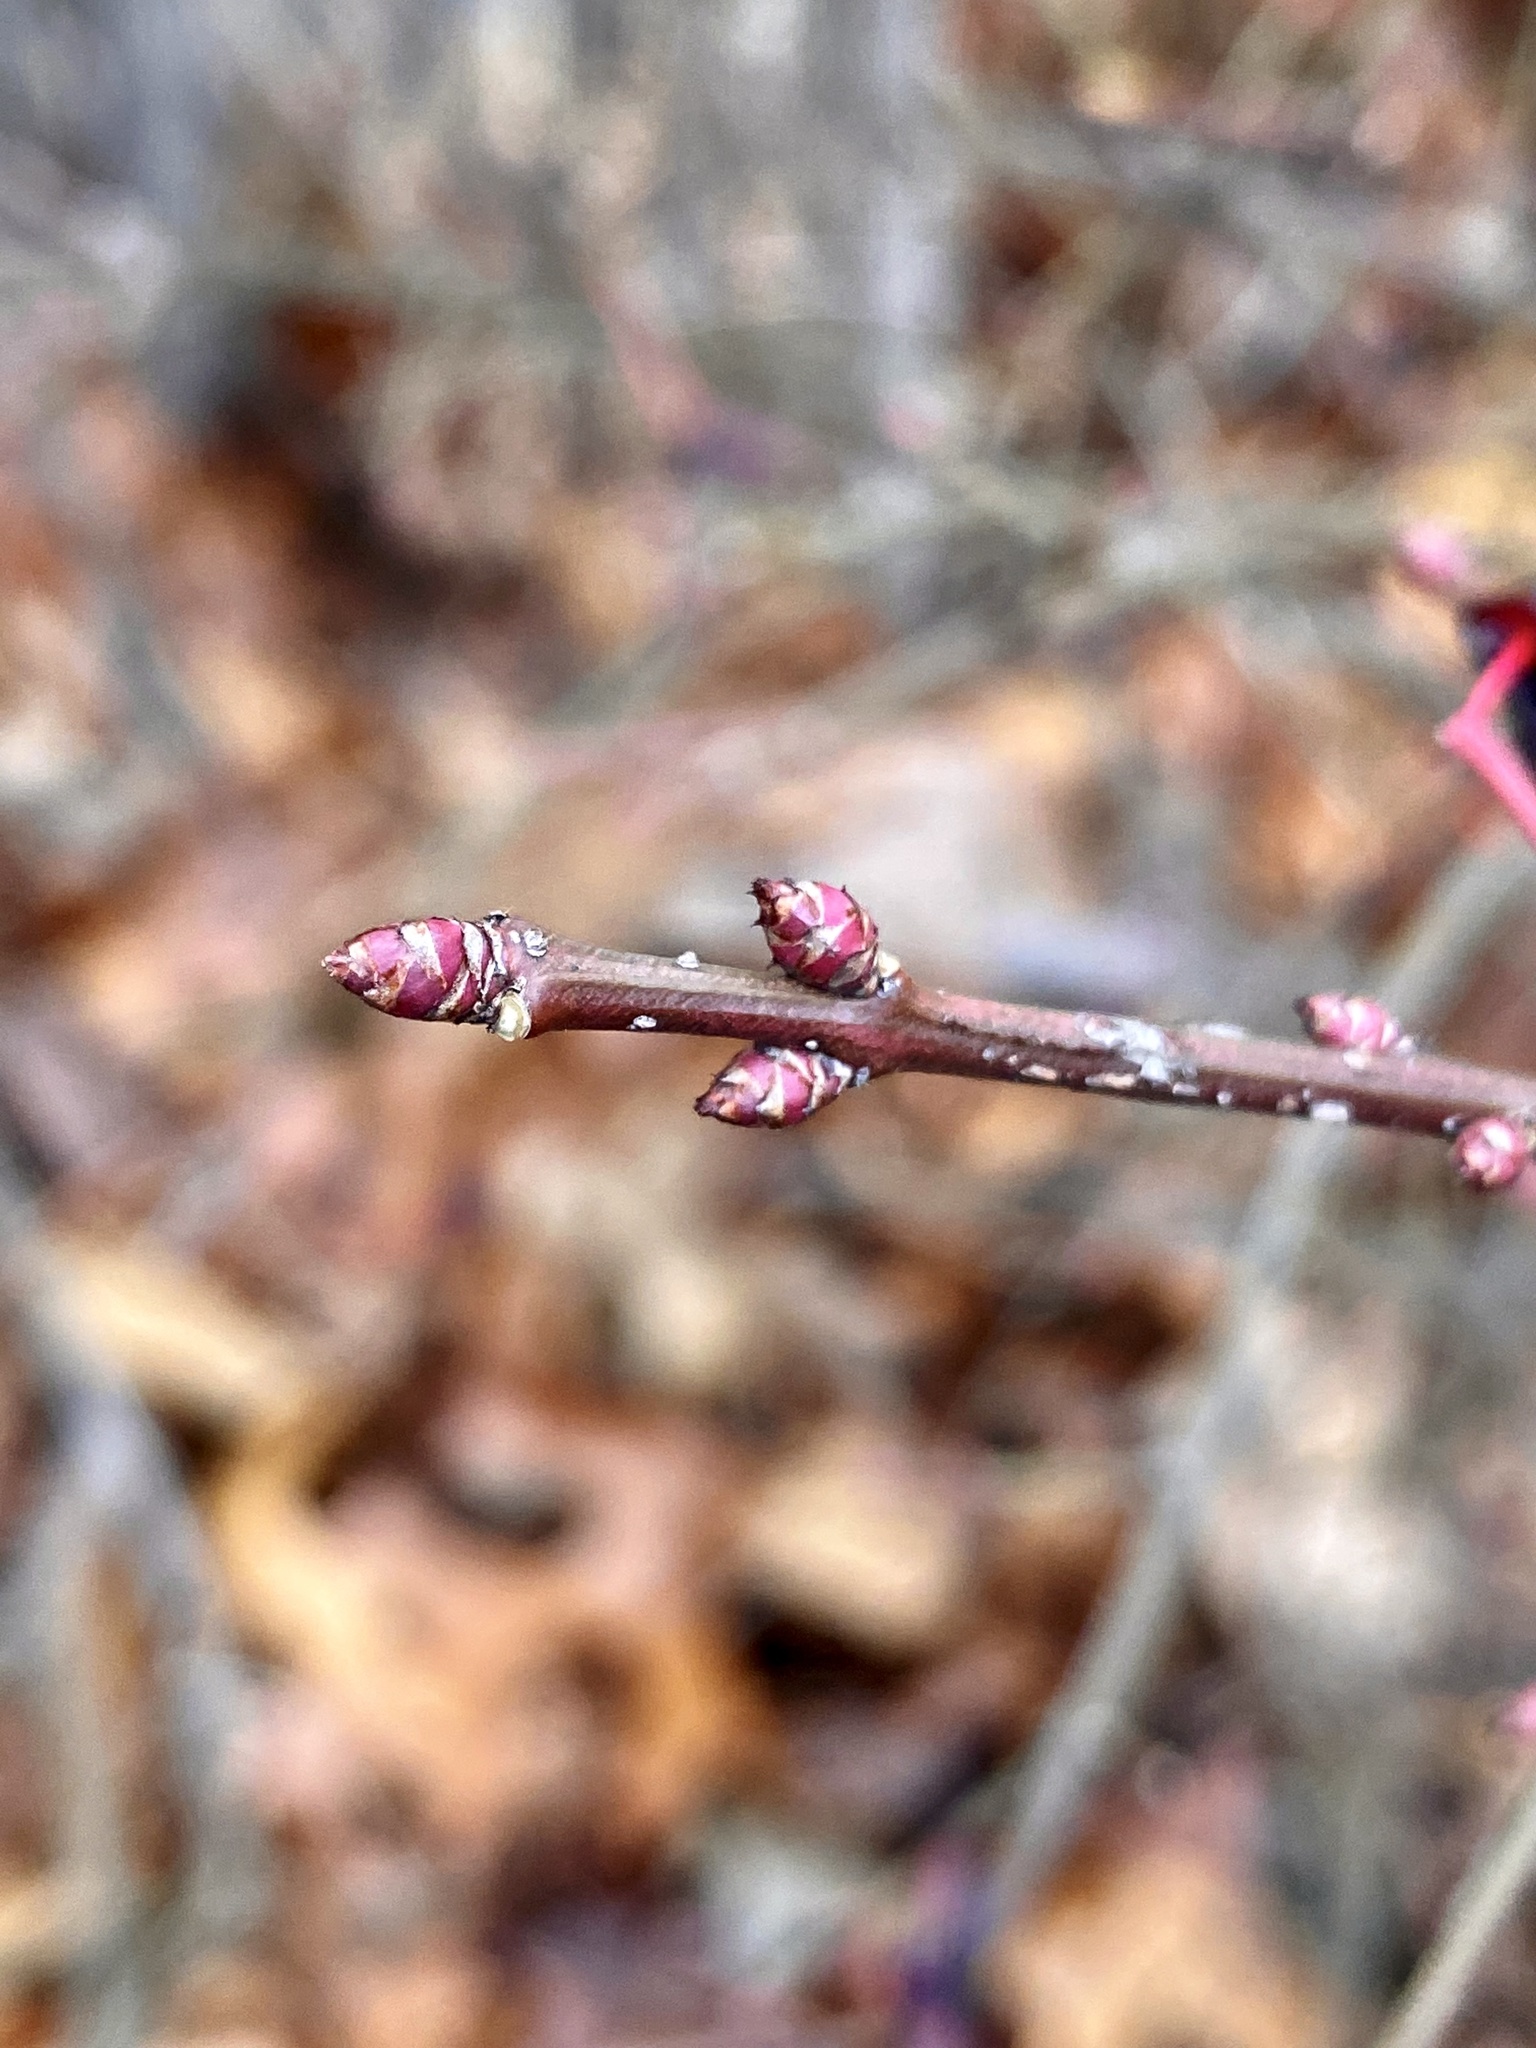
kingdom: Plantae
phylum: Tracheophyta
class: Magnoliopsida
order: Celastrales
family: Celastraceae
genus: Euonymus
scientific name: Euonymus alatus
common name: Winged euonymus
